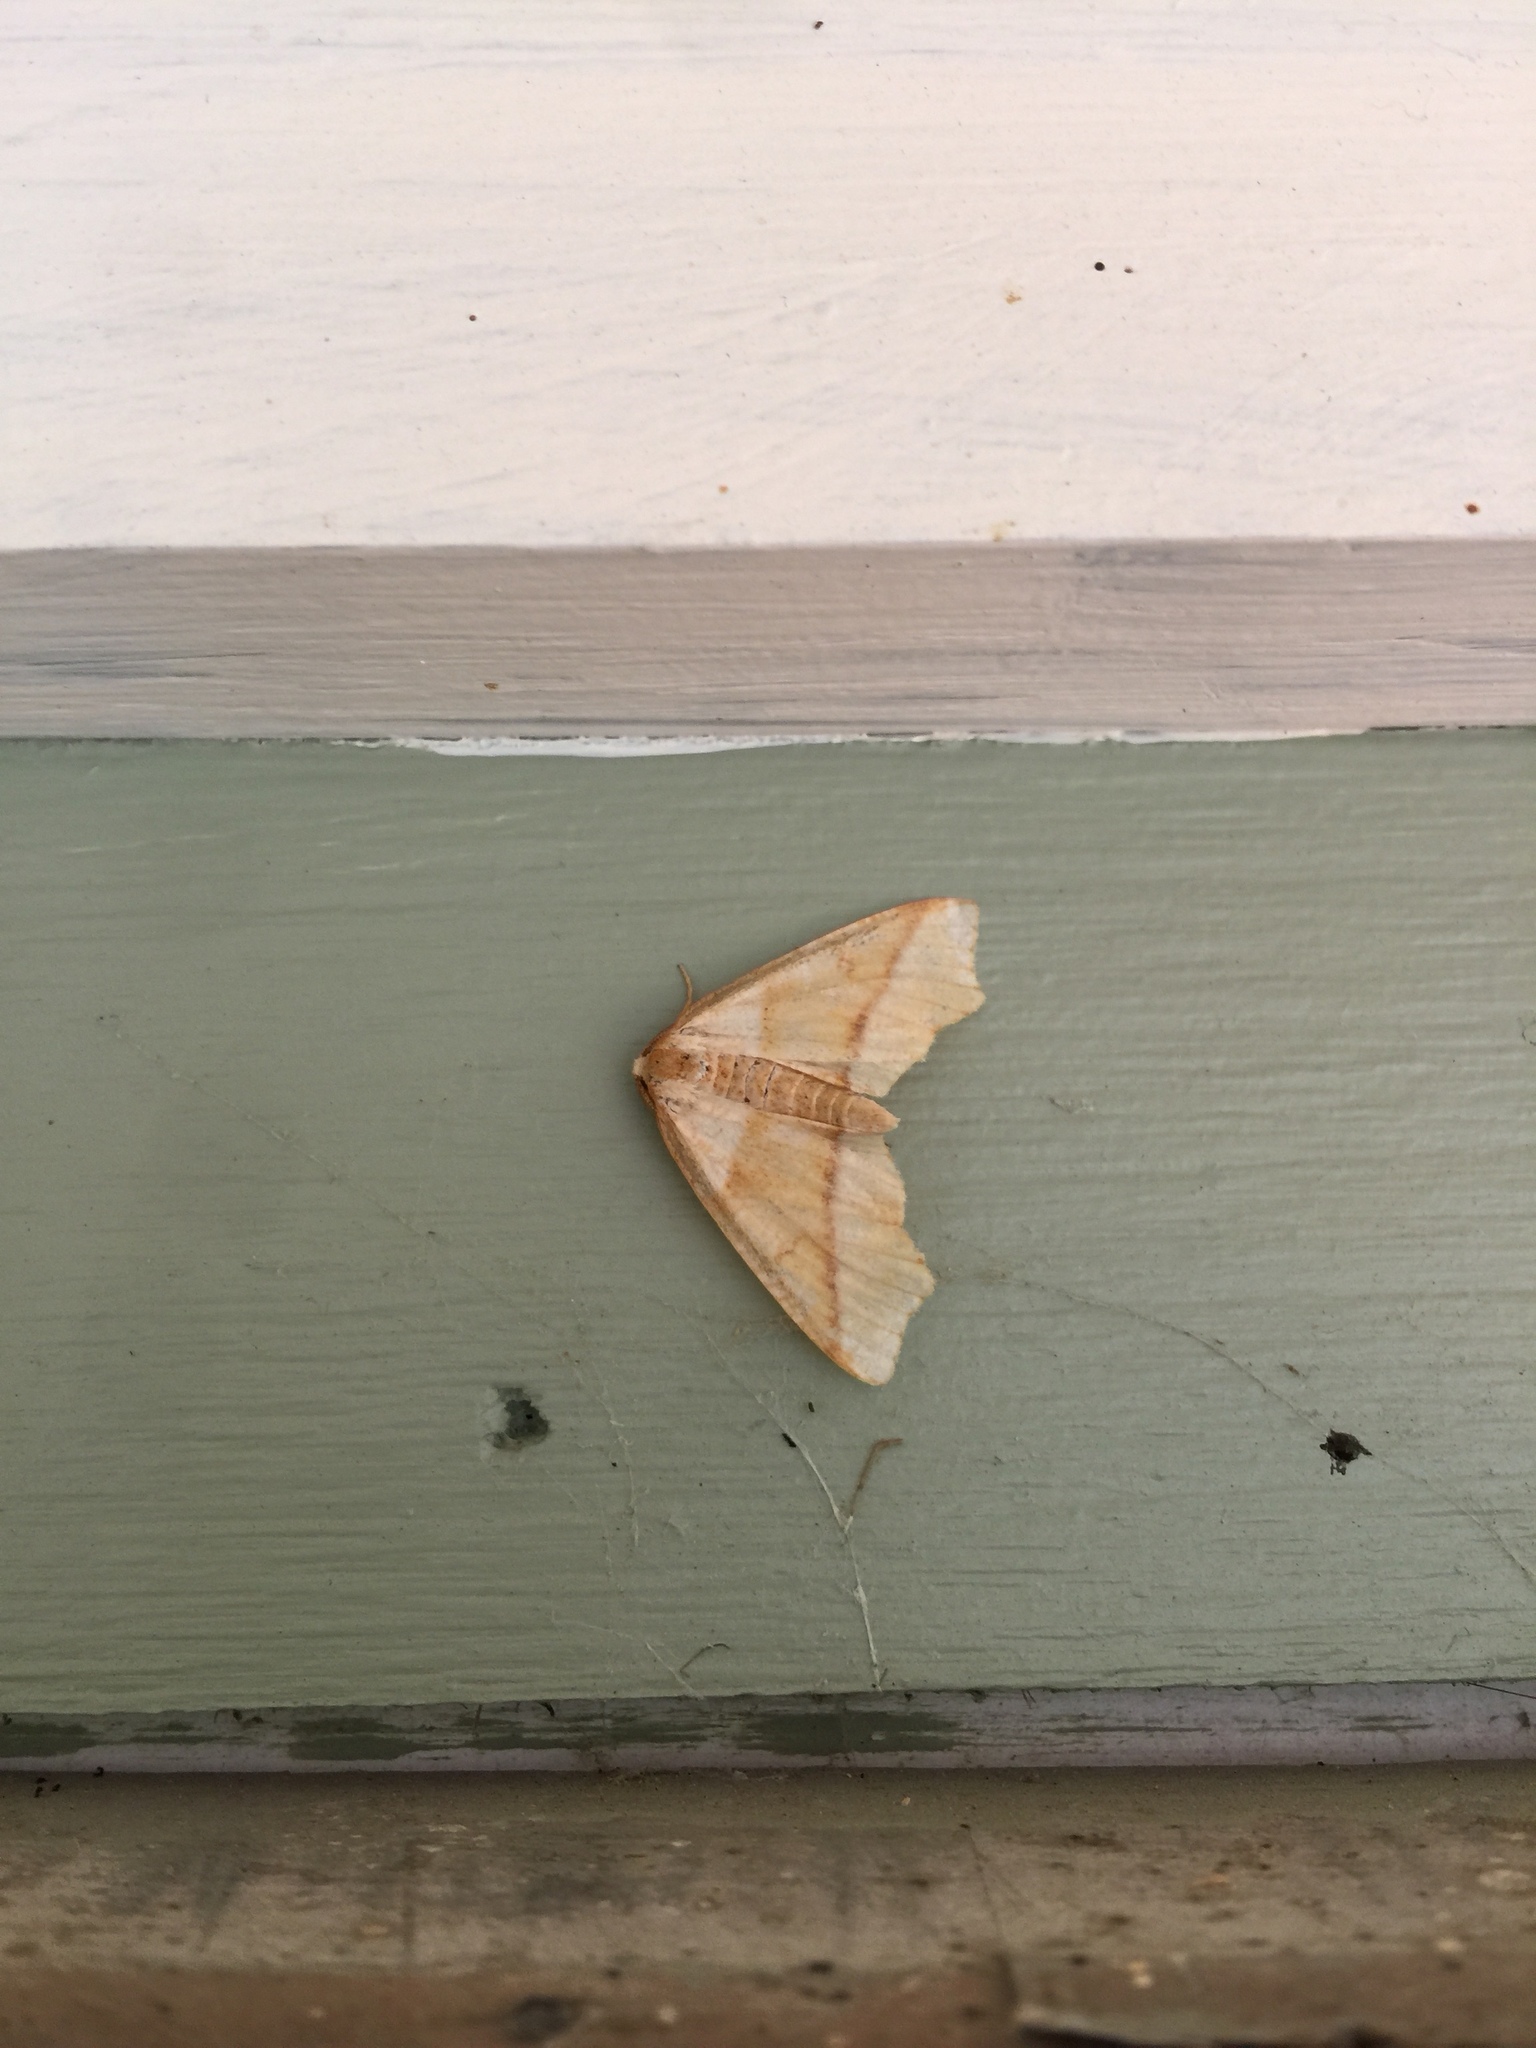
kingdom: Animalia
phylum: Arthropoda
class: Insecta
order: Lepidoptera
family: Geometridae
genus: Plagodis
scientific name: Plagodis alcoolaria
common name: Hollow-spotted plagodis
